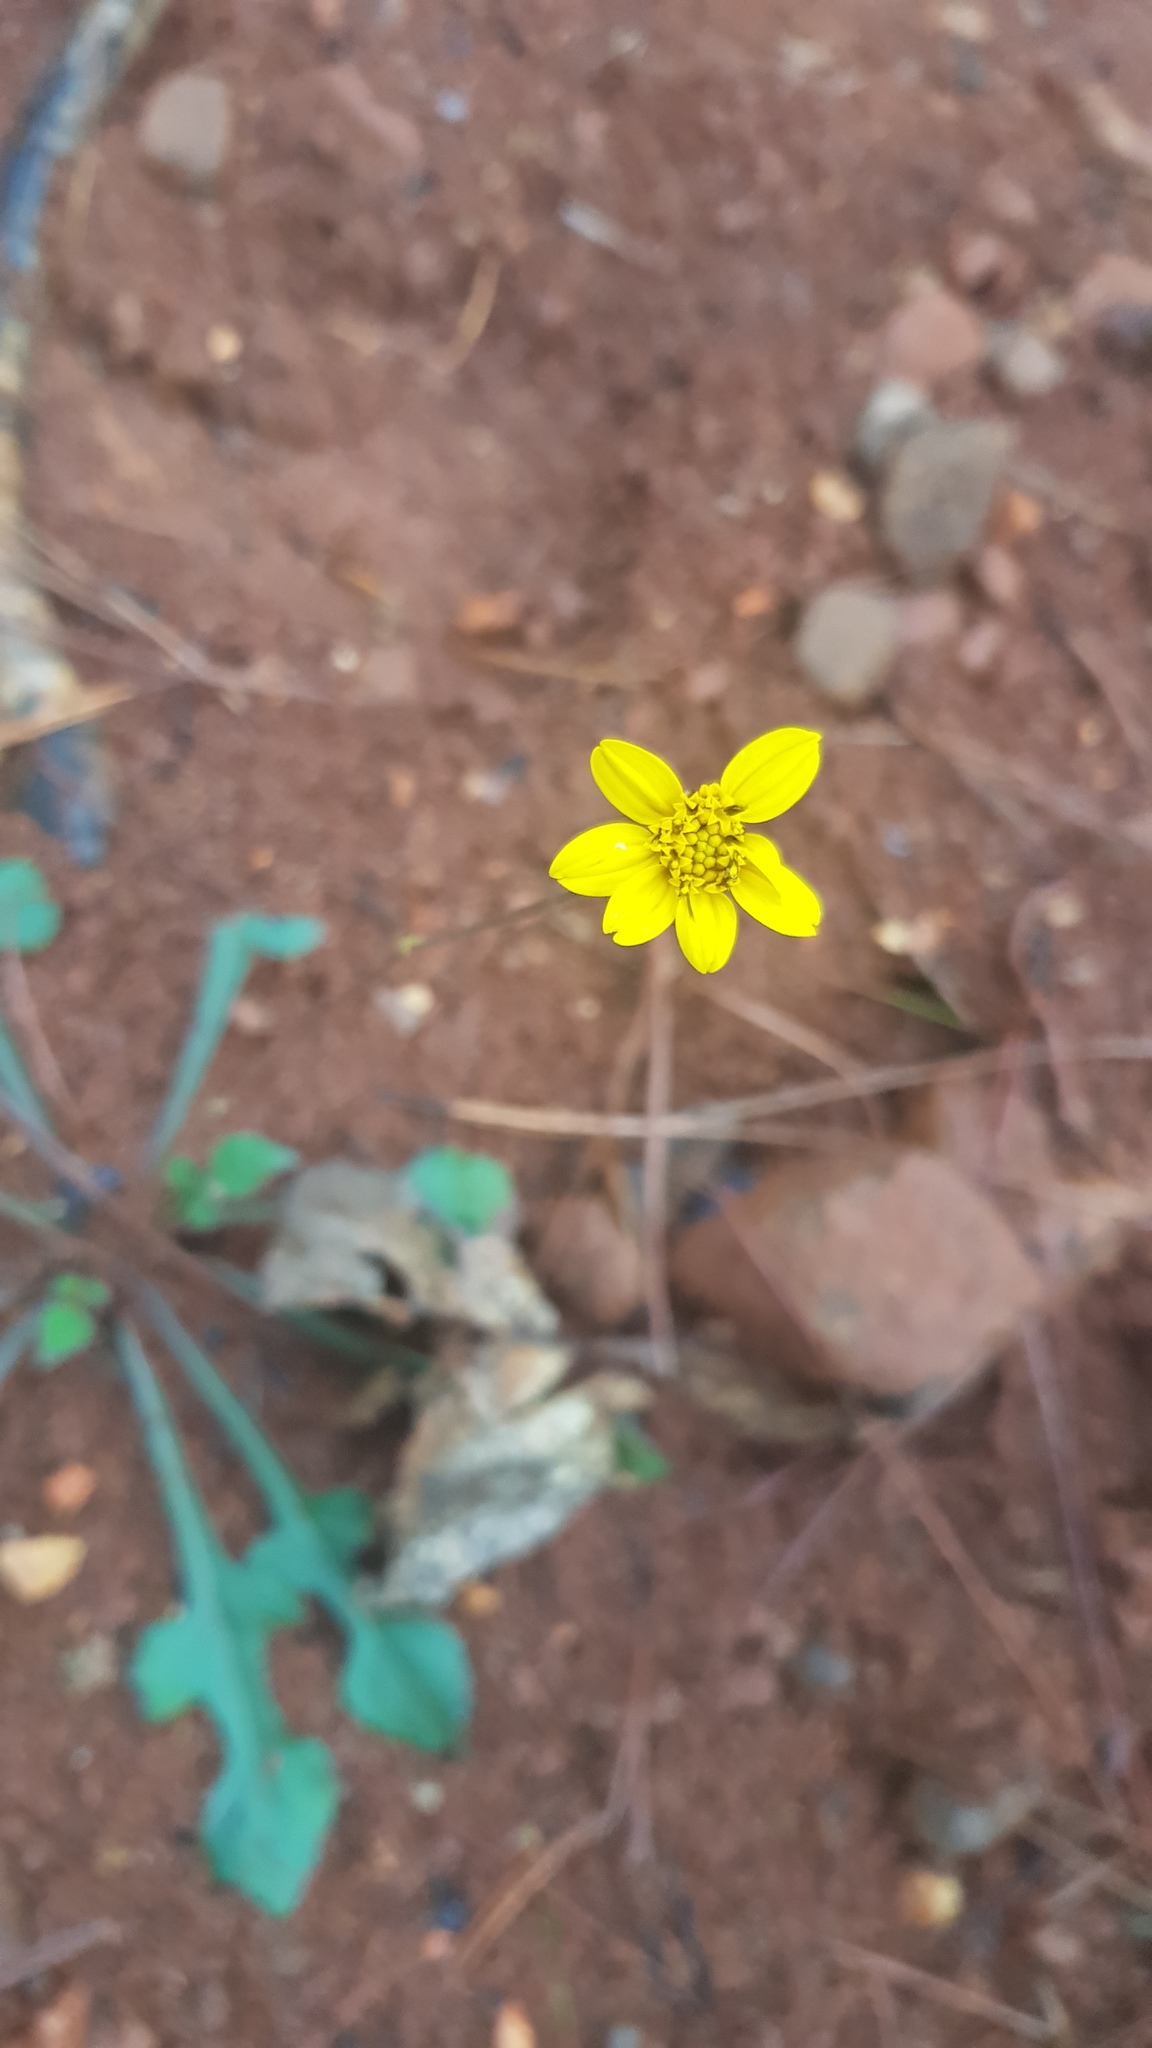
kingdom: Plantae
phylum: Tracheophyta
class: Magnoliopsida
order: Asterales
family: Asteraceae
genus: Iostephane
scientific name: Iostephane trilobata
